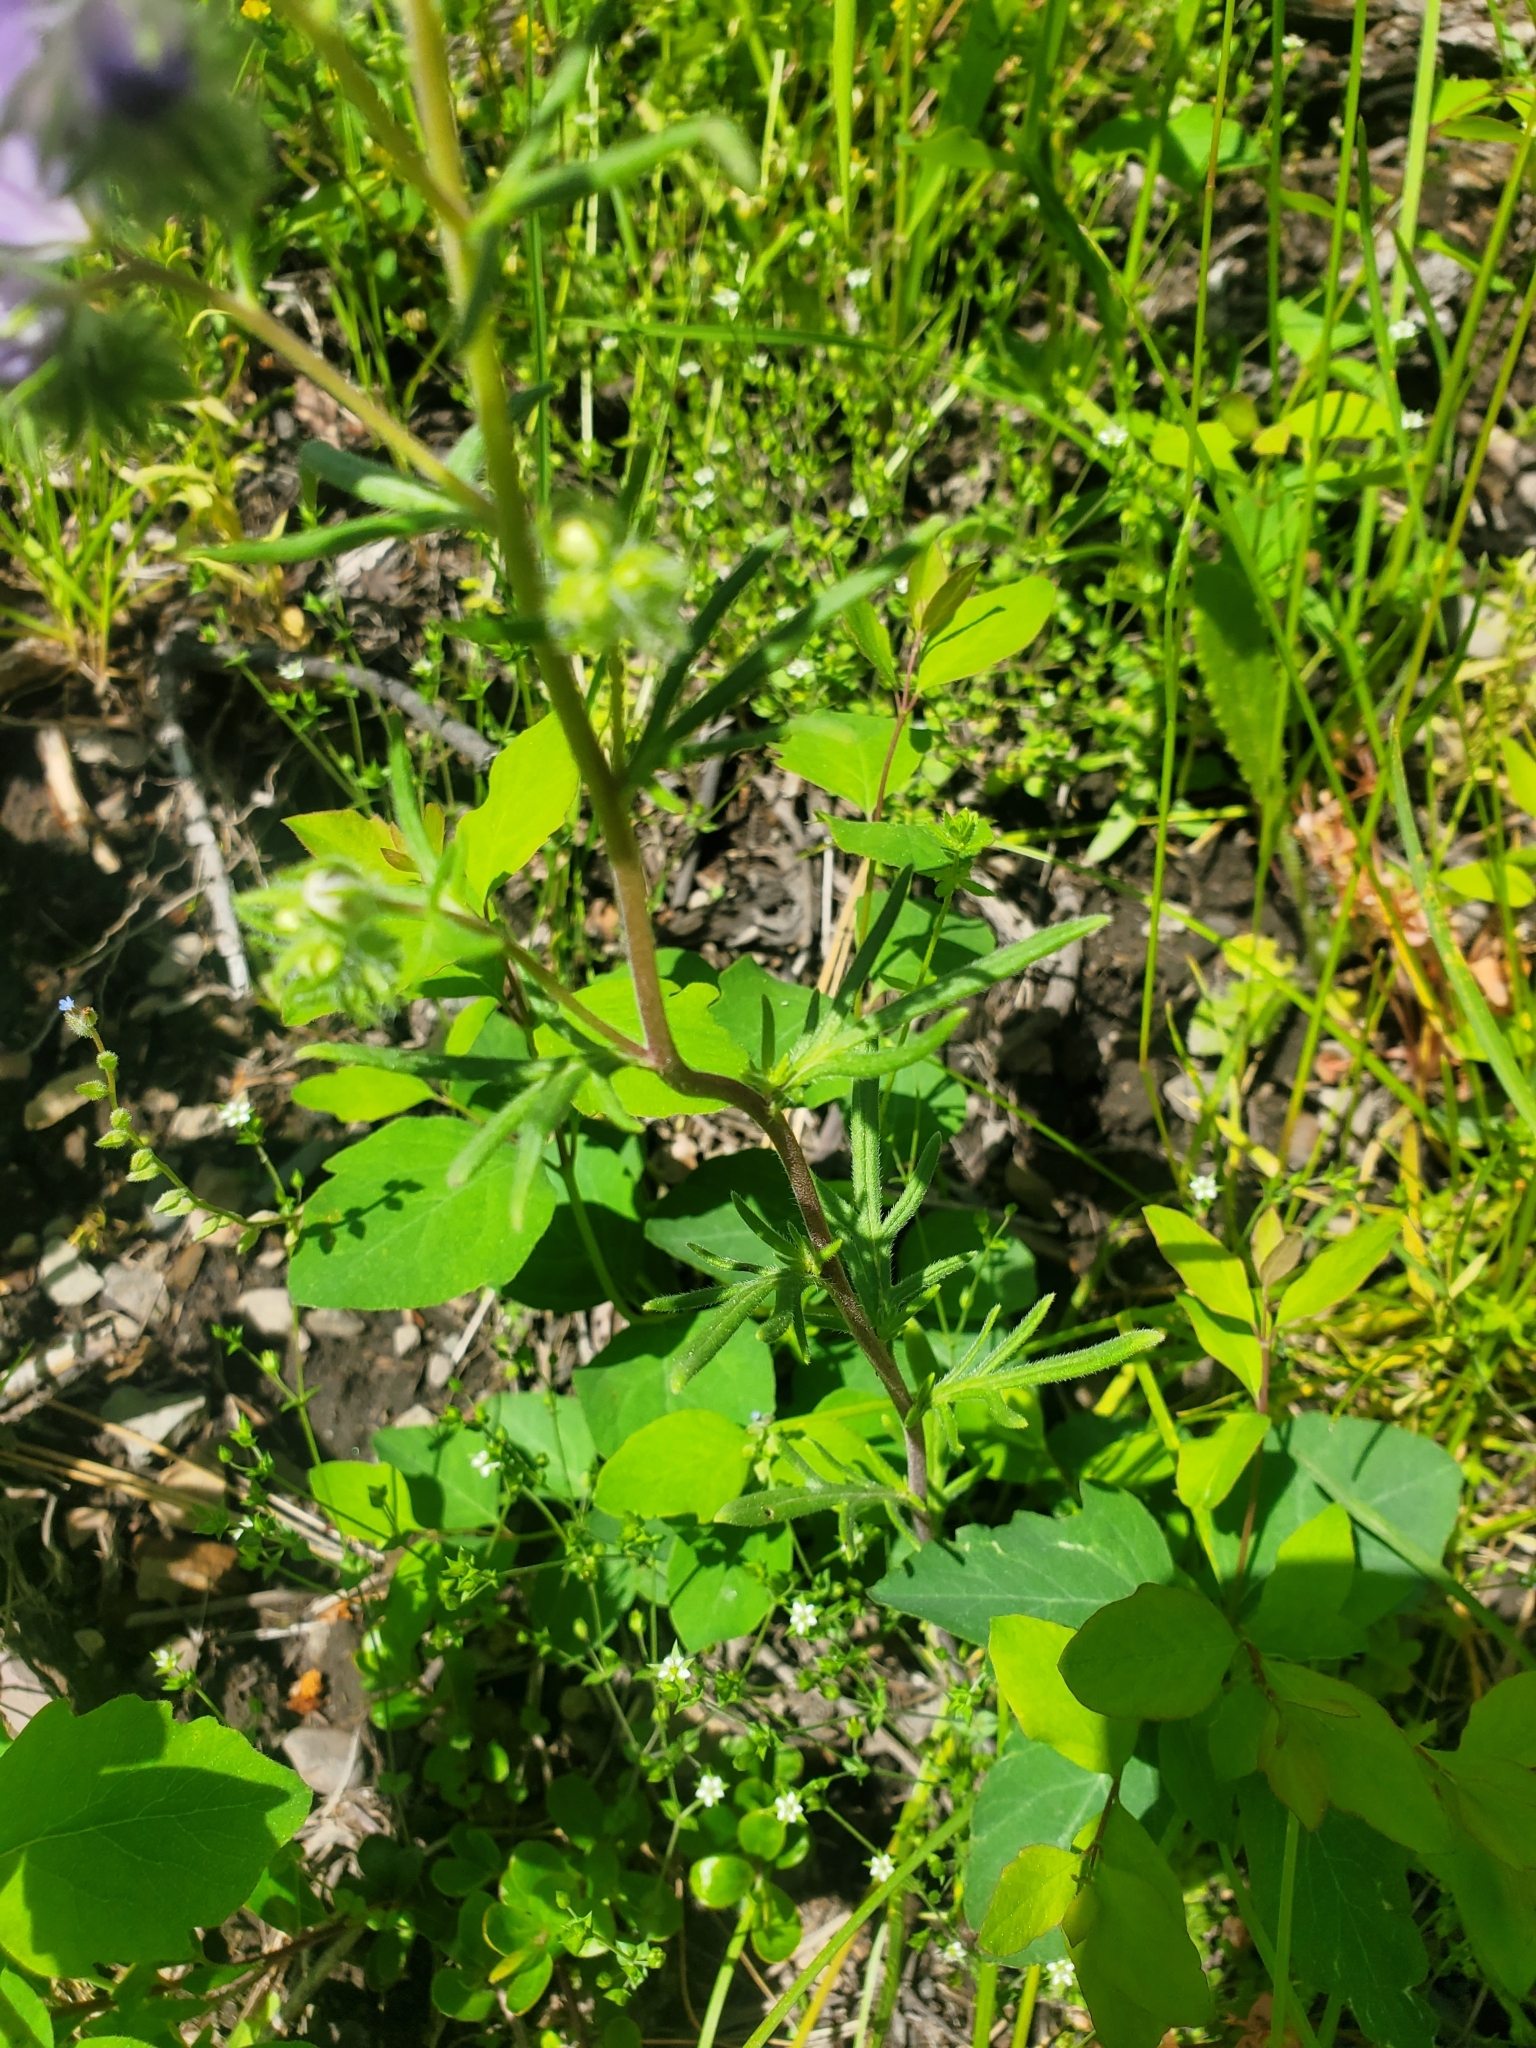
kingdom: Plantae
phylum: Tracheophyta
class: Magnoliopsida
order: Boraginales
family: Hydrophyllaceae
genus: Phacelia
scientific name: Phacelia linearis
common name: Linear-leaved phacelia
